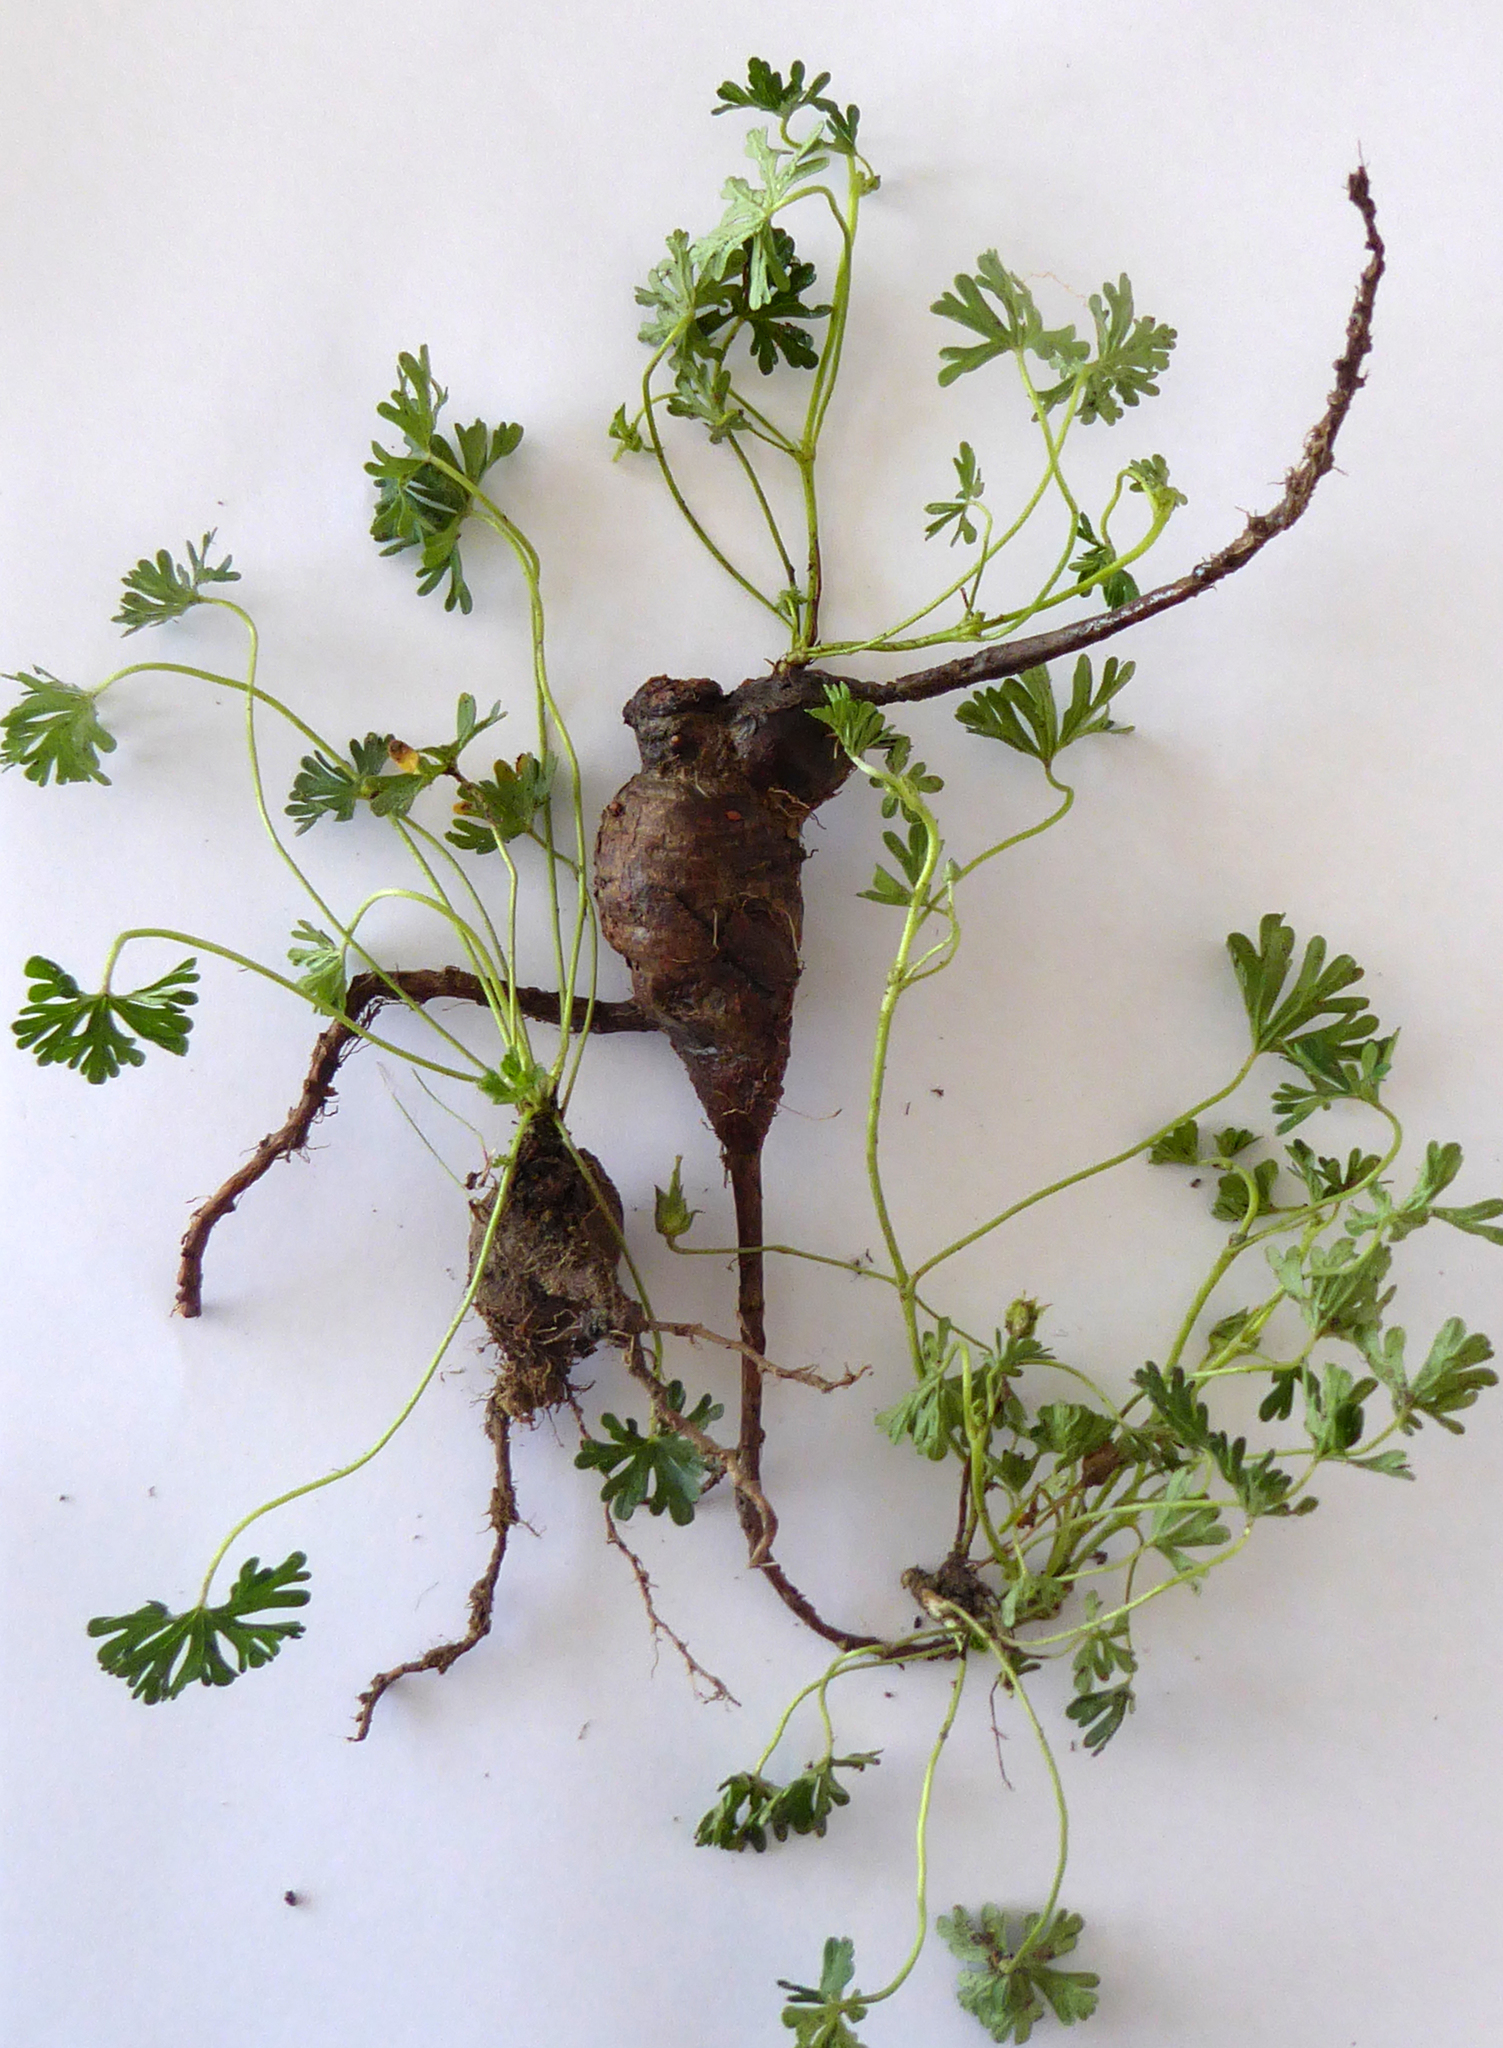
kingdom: Plantae
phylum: Tracheophyta
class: Magnoliopsida
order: Geraniales
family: Geraniaceae
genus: Geranium
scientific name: Geranium retrorsum
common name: New zealand geranium
